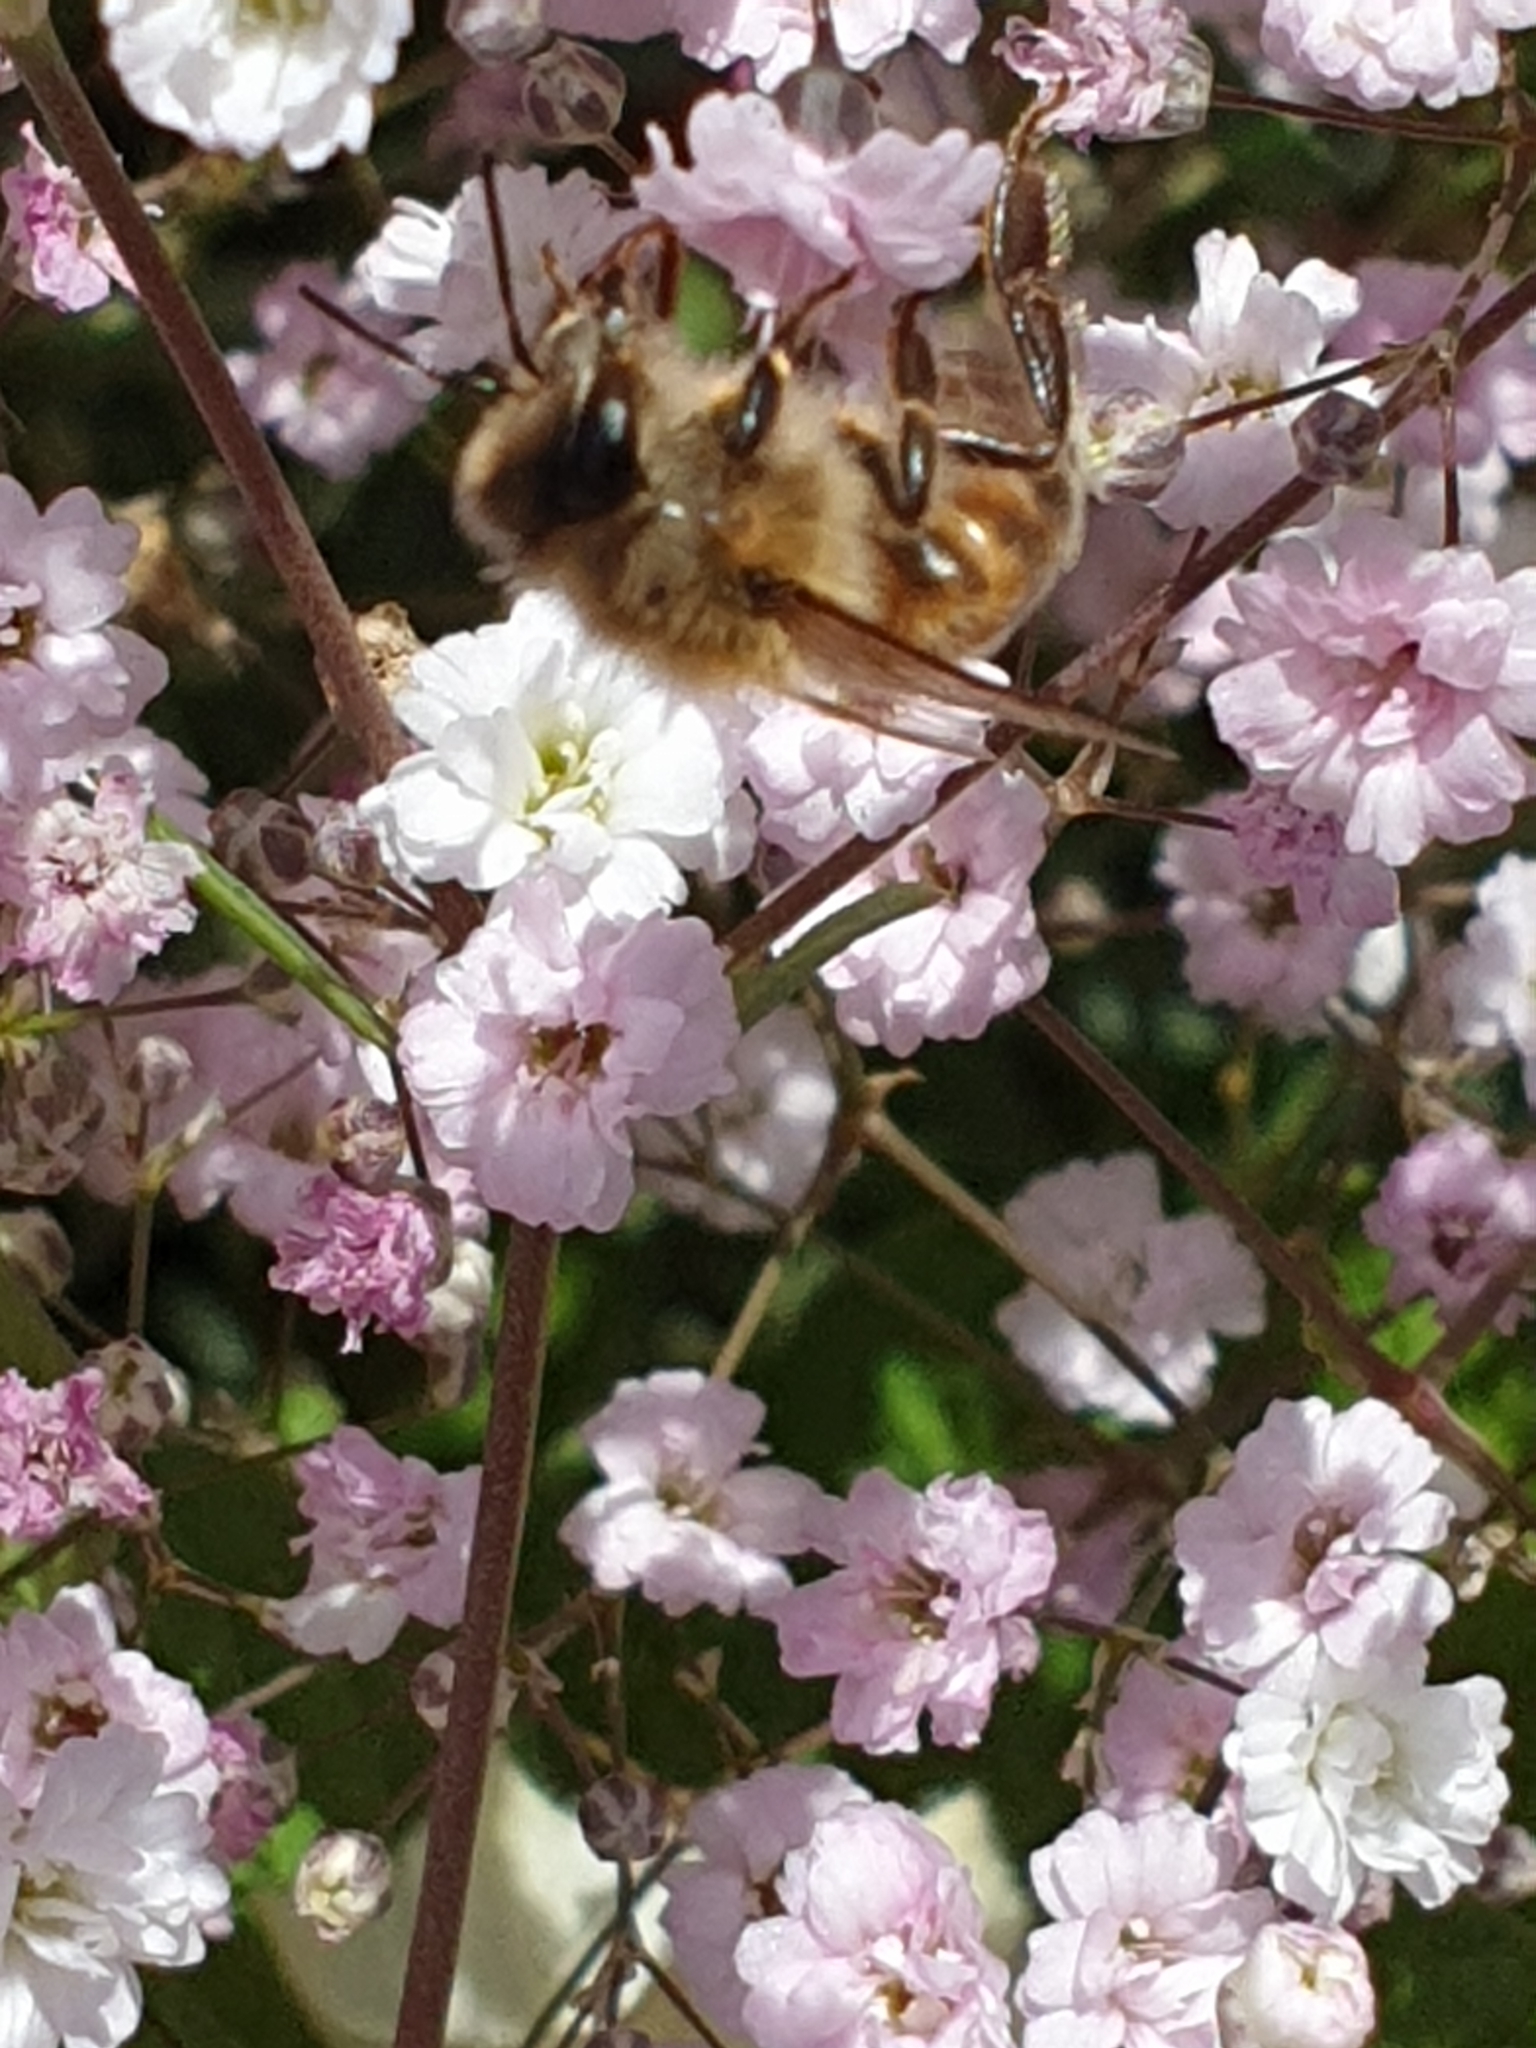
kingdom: Animalia
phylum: Arthropoda
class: Insecta
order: Hymenoptera
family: Apidae
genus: Apis
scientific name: Apis mellifera
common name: Honey bee
